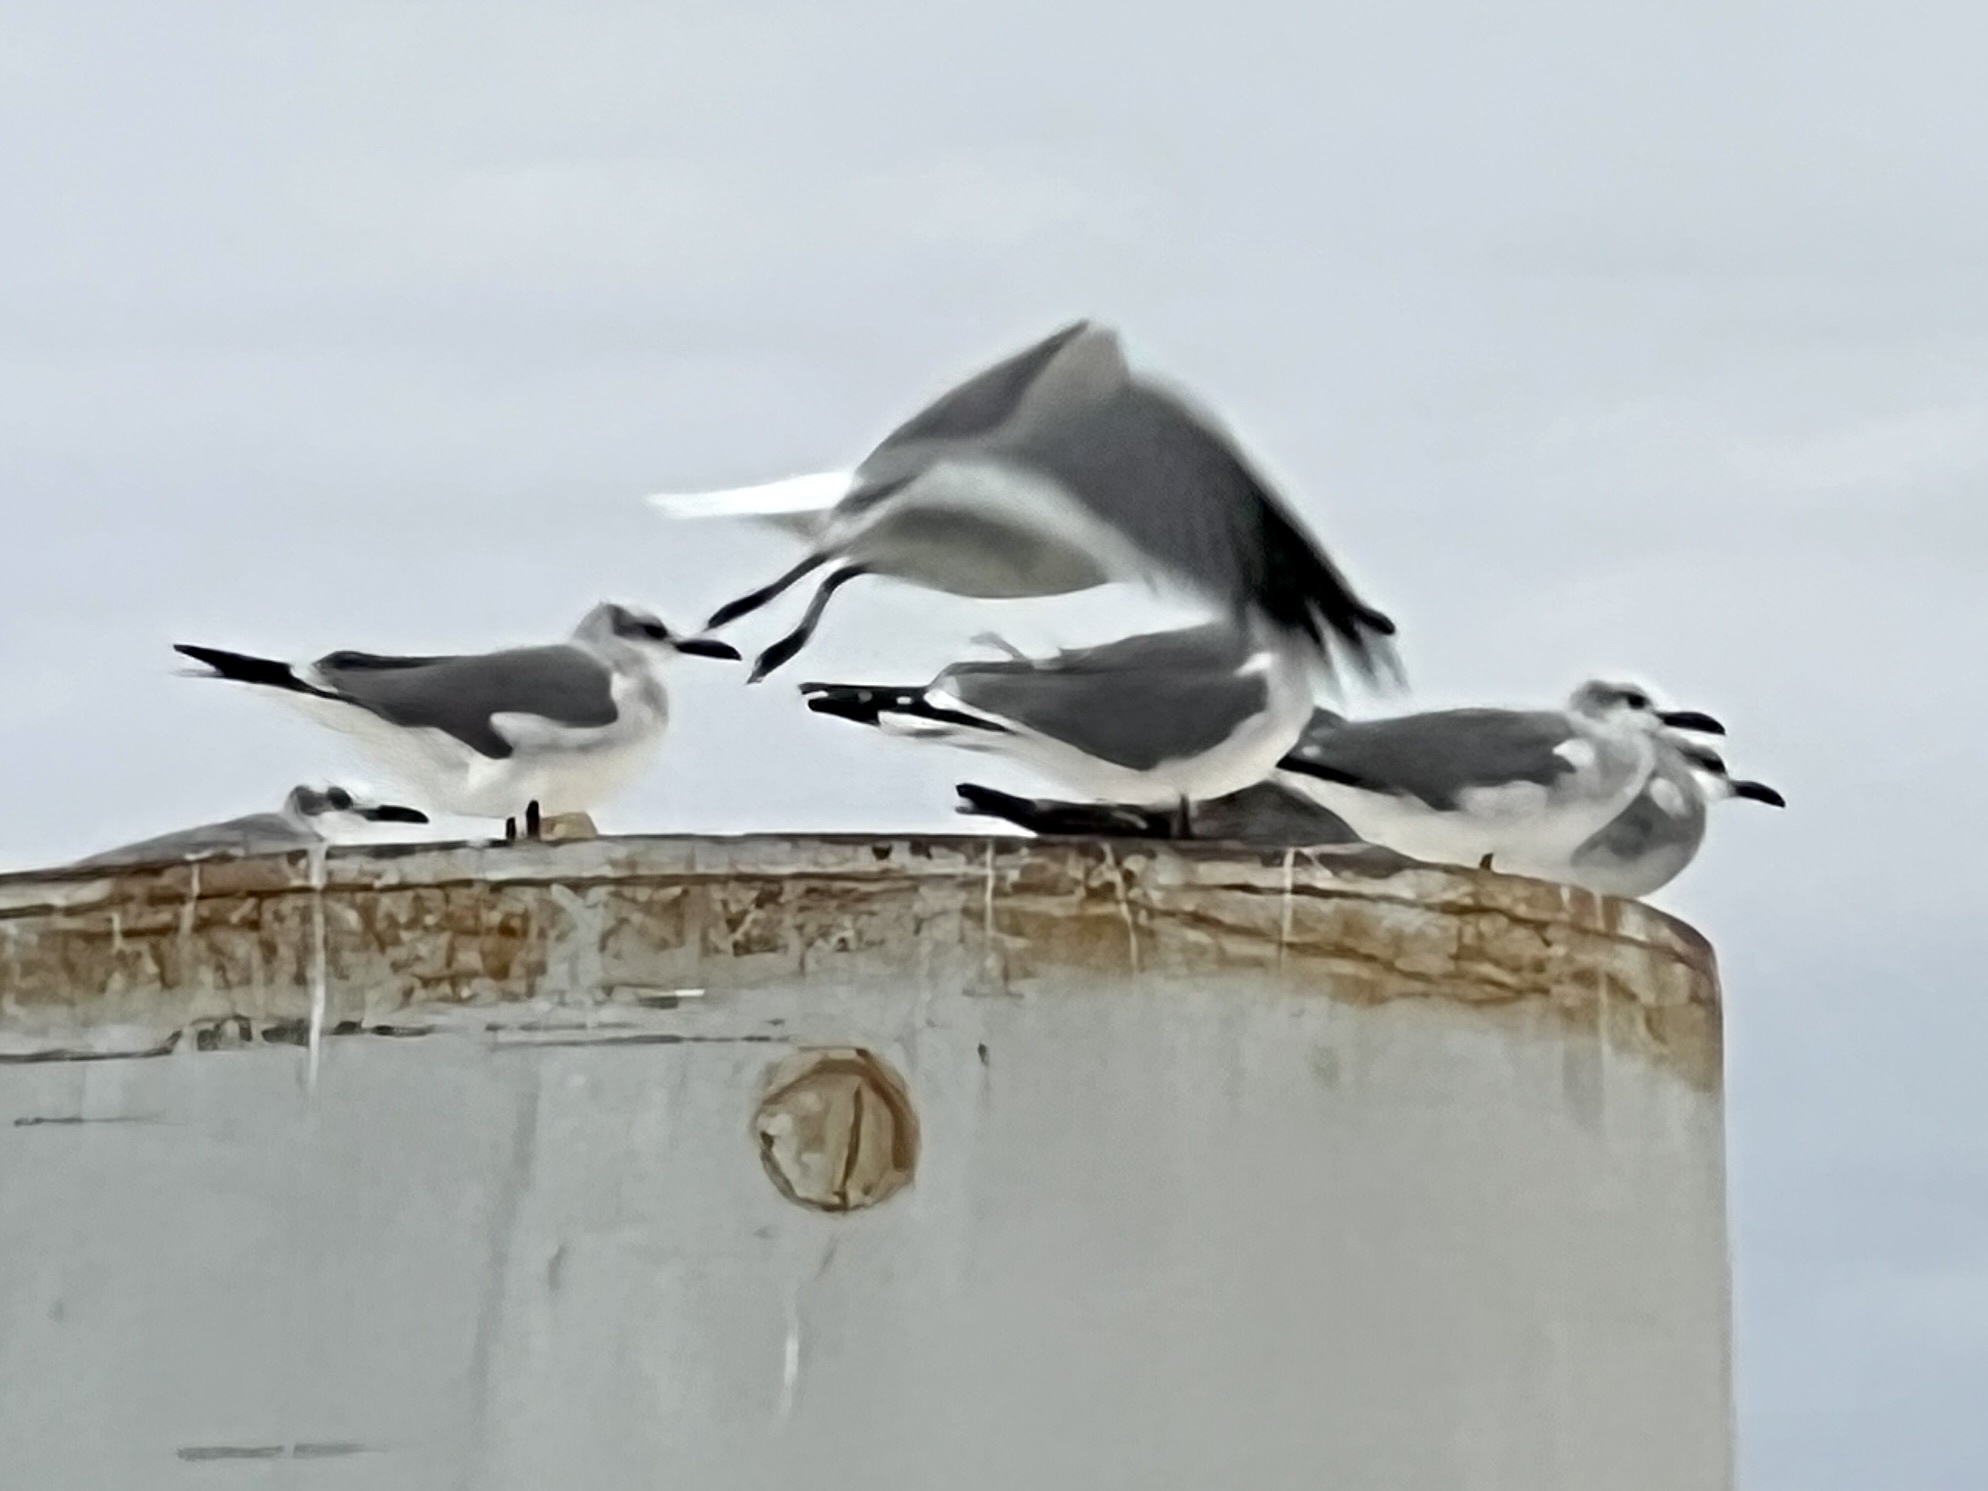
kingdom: Animalia
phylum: Chordata
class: Aves
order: Charadriiformes
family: Laridae
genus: Leucophaeus
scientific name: Leucophaeus atricilla
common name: Laughing gull
